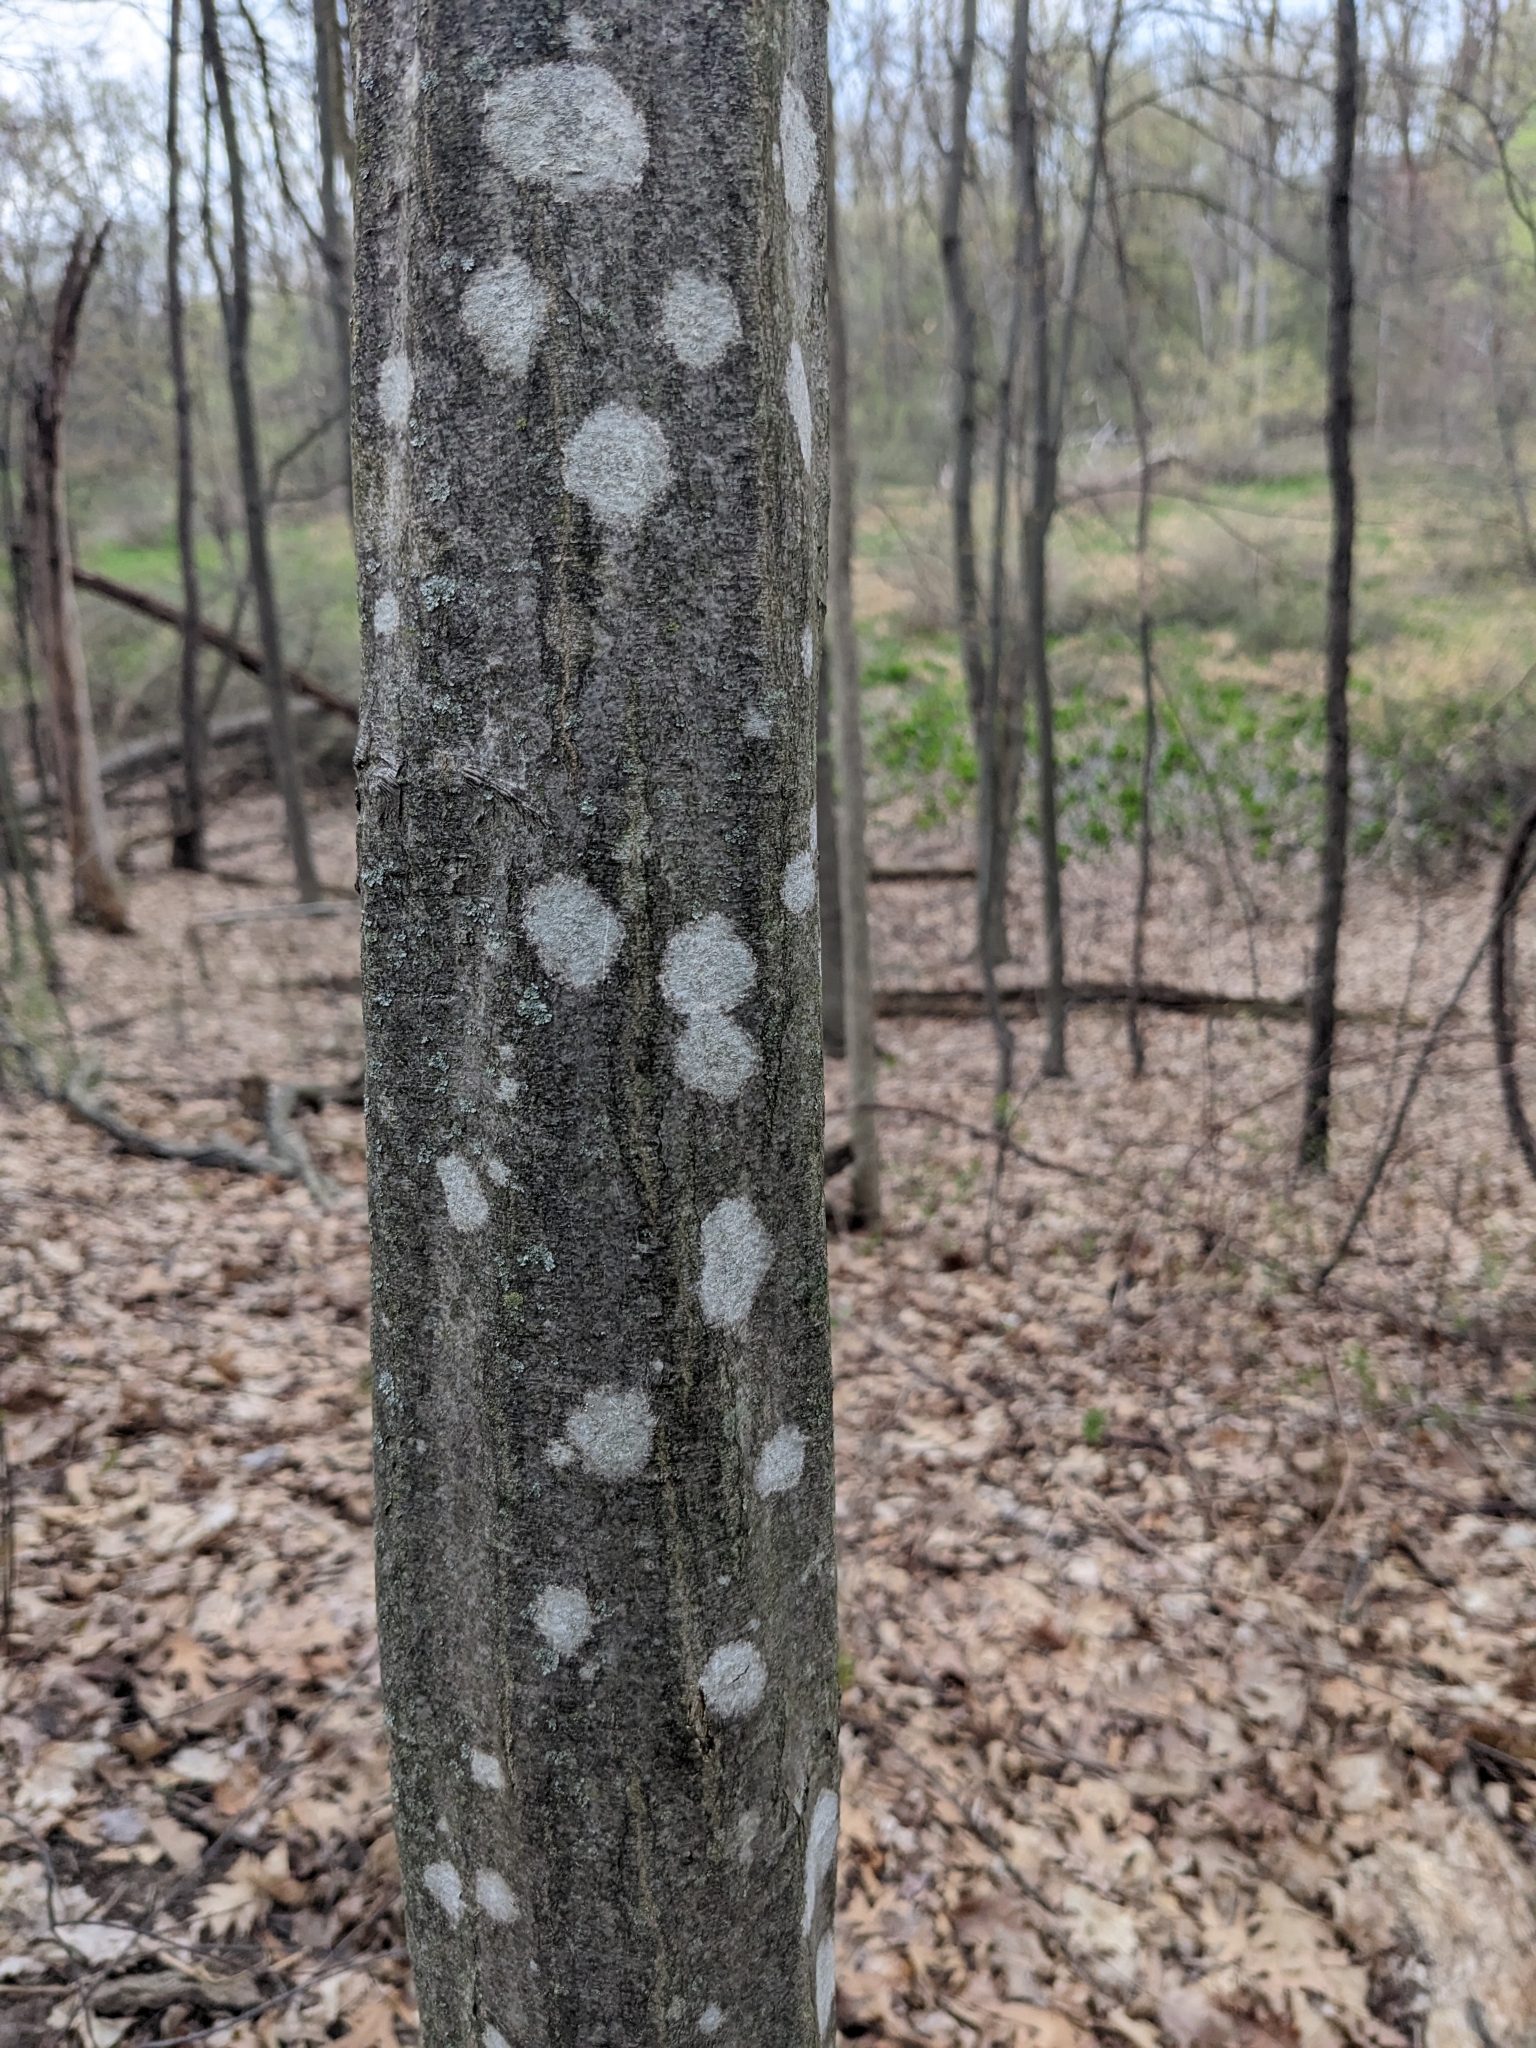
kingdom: Plantae
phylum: Tracheophyta
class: Magnoliopsida
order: Fagales
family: Betulaceae
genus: Carpinus
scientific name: Carpinus caroliniana
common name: American hornbeam
